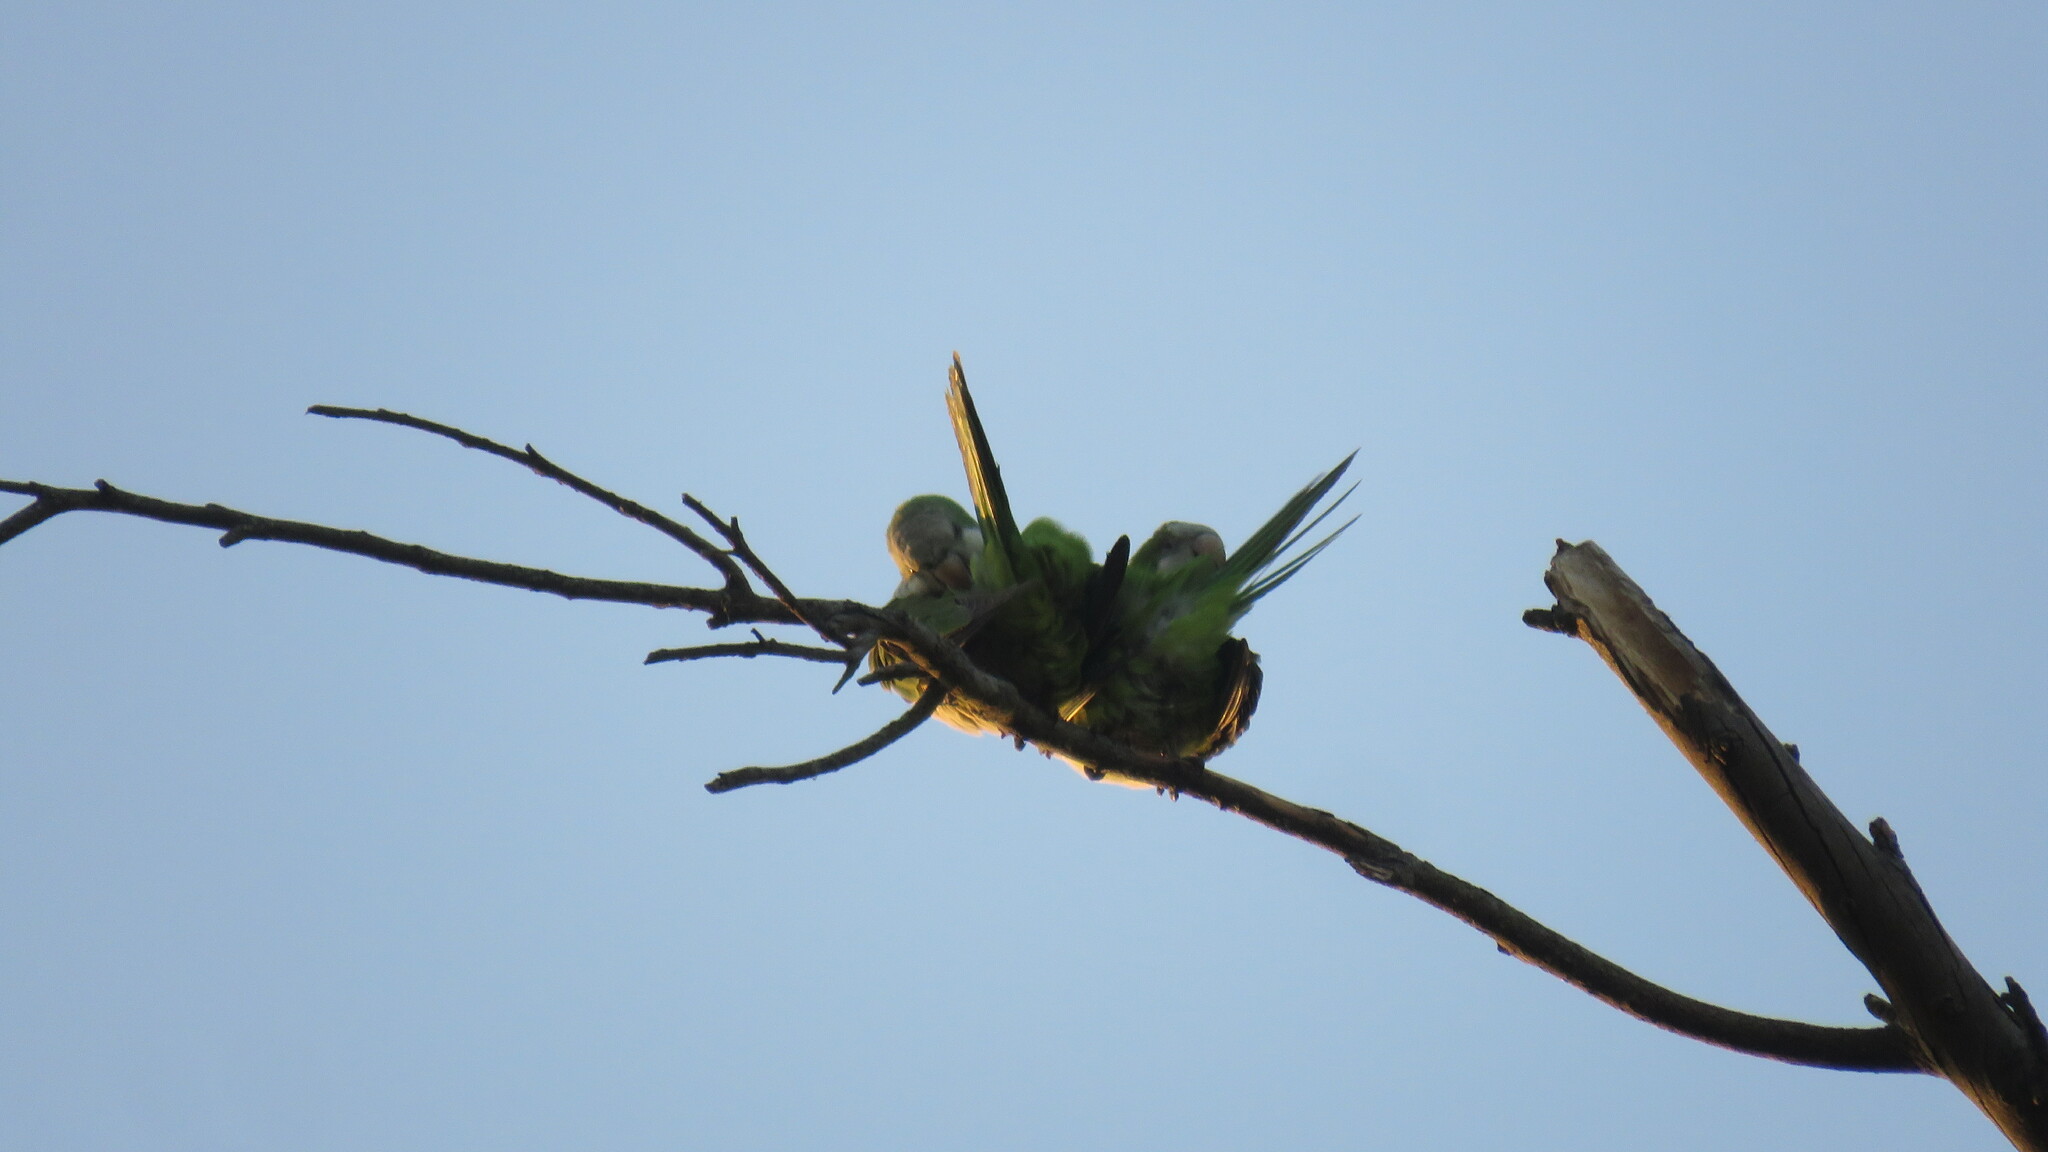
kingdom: Animalia
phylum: Chordata
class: Aves
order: Psittaciformes
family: Psittacidae
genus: Myiopsitta
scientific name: Myiopsitta monachus
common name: Monk parakeet
